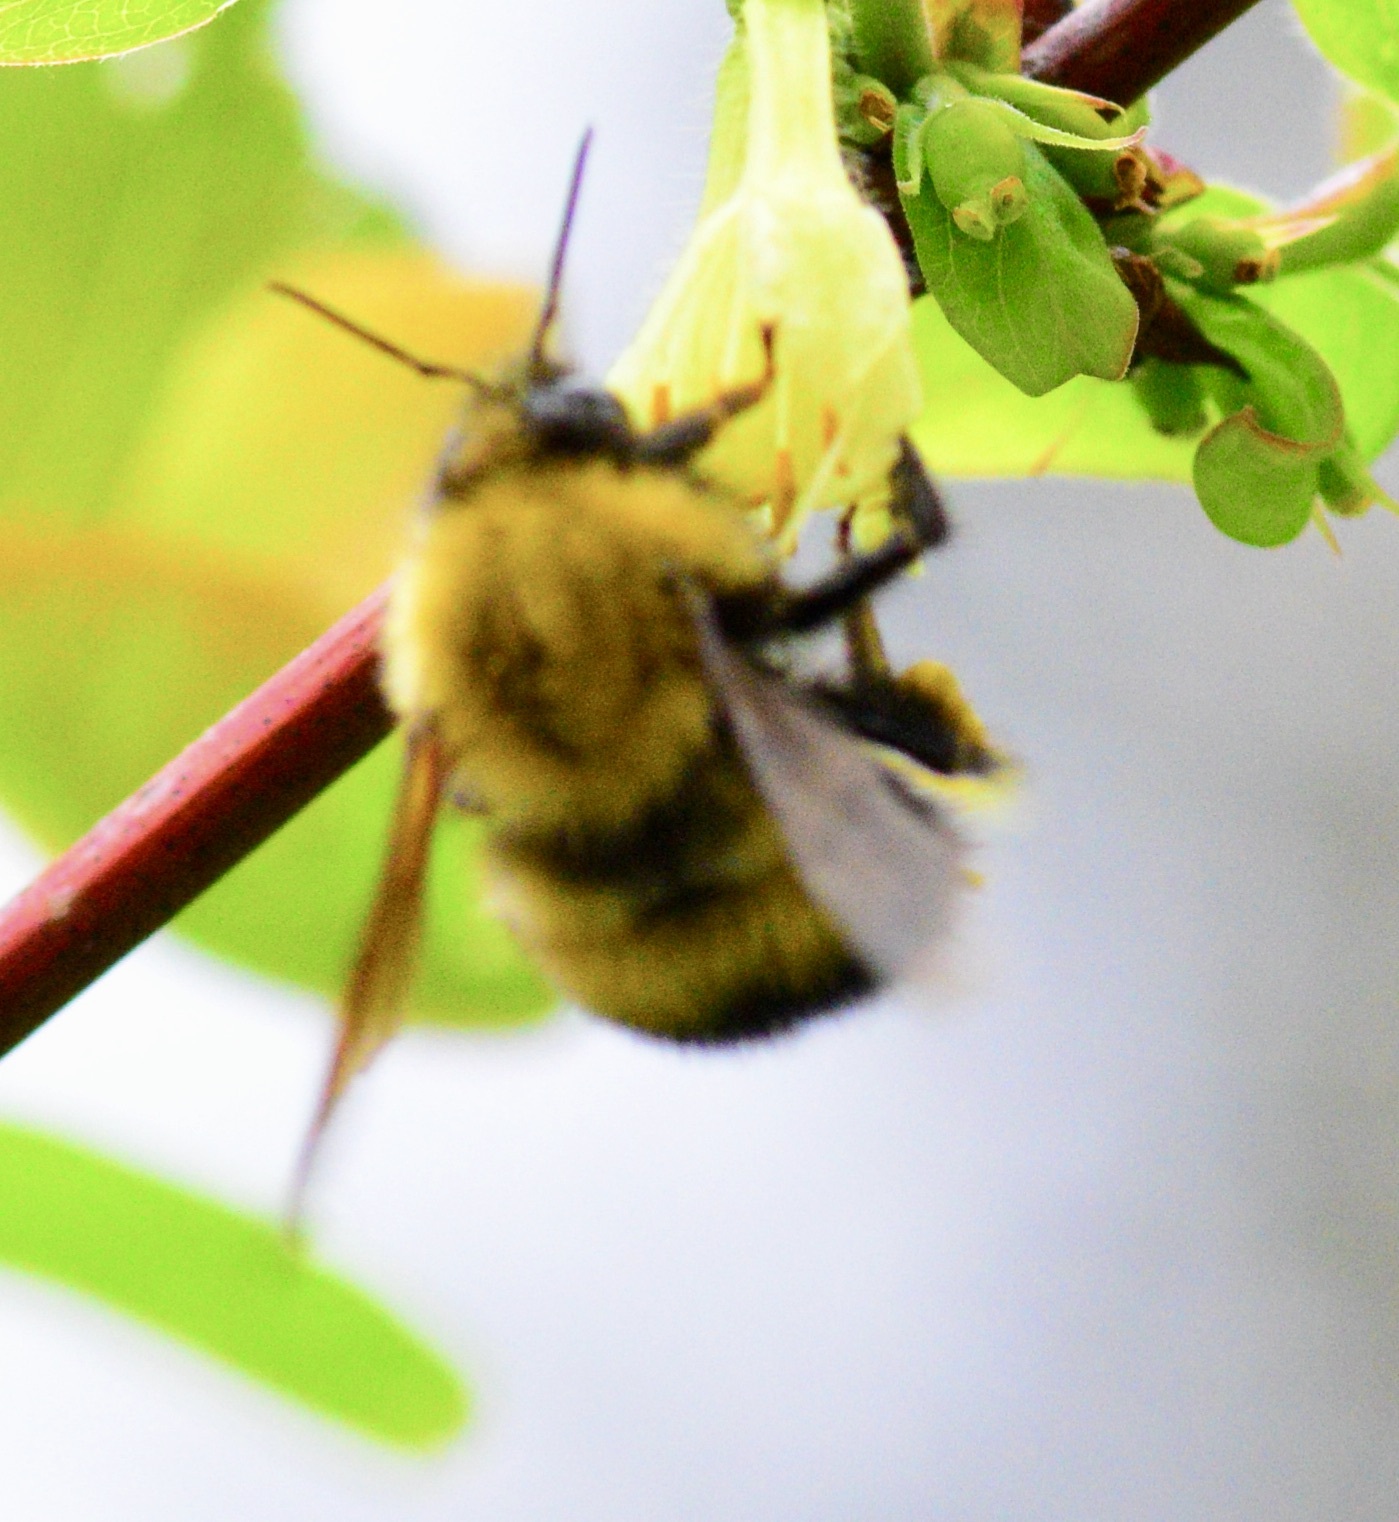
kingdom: Animalia
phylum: Arthropoda
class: Insecta
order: Hymenoptera
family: Apidae
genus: Bombus
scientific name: Bombus perplexus
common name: Confusing bumble bee
